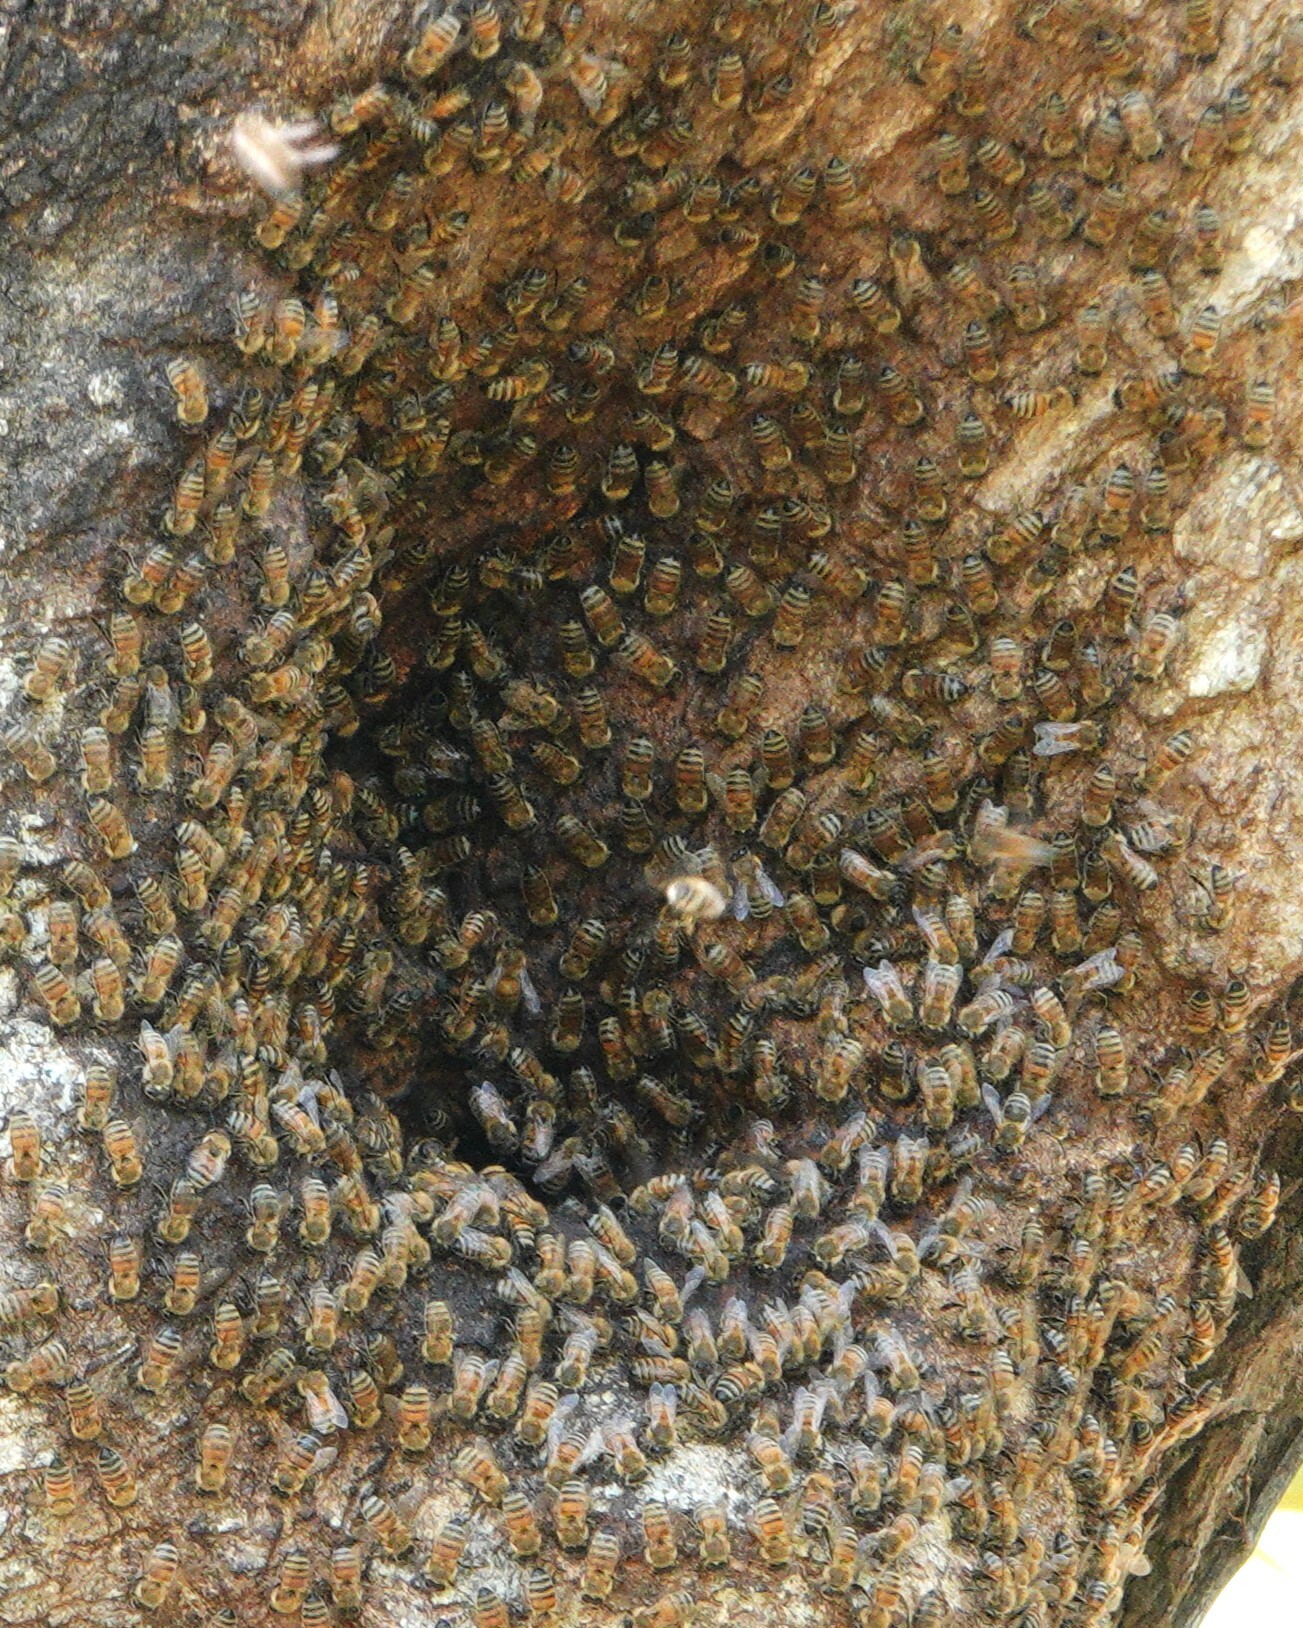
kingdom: Animalia
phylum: Arthropoda
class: Insecta
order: Hymenoptera
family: Apidae
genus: Apis
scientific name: Apis mellifera
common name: Honey bee
